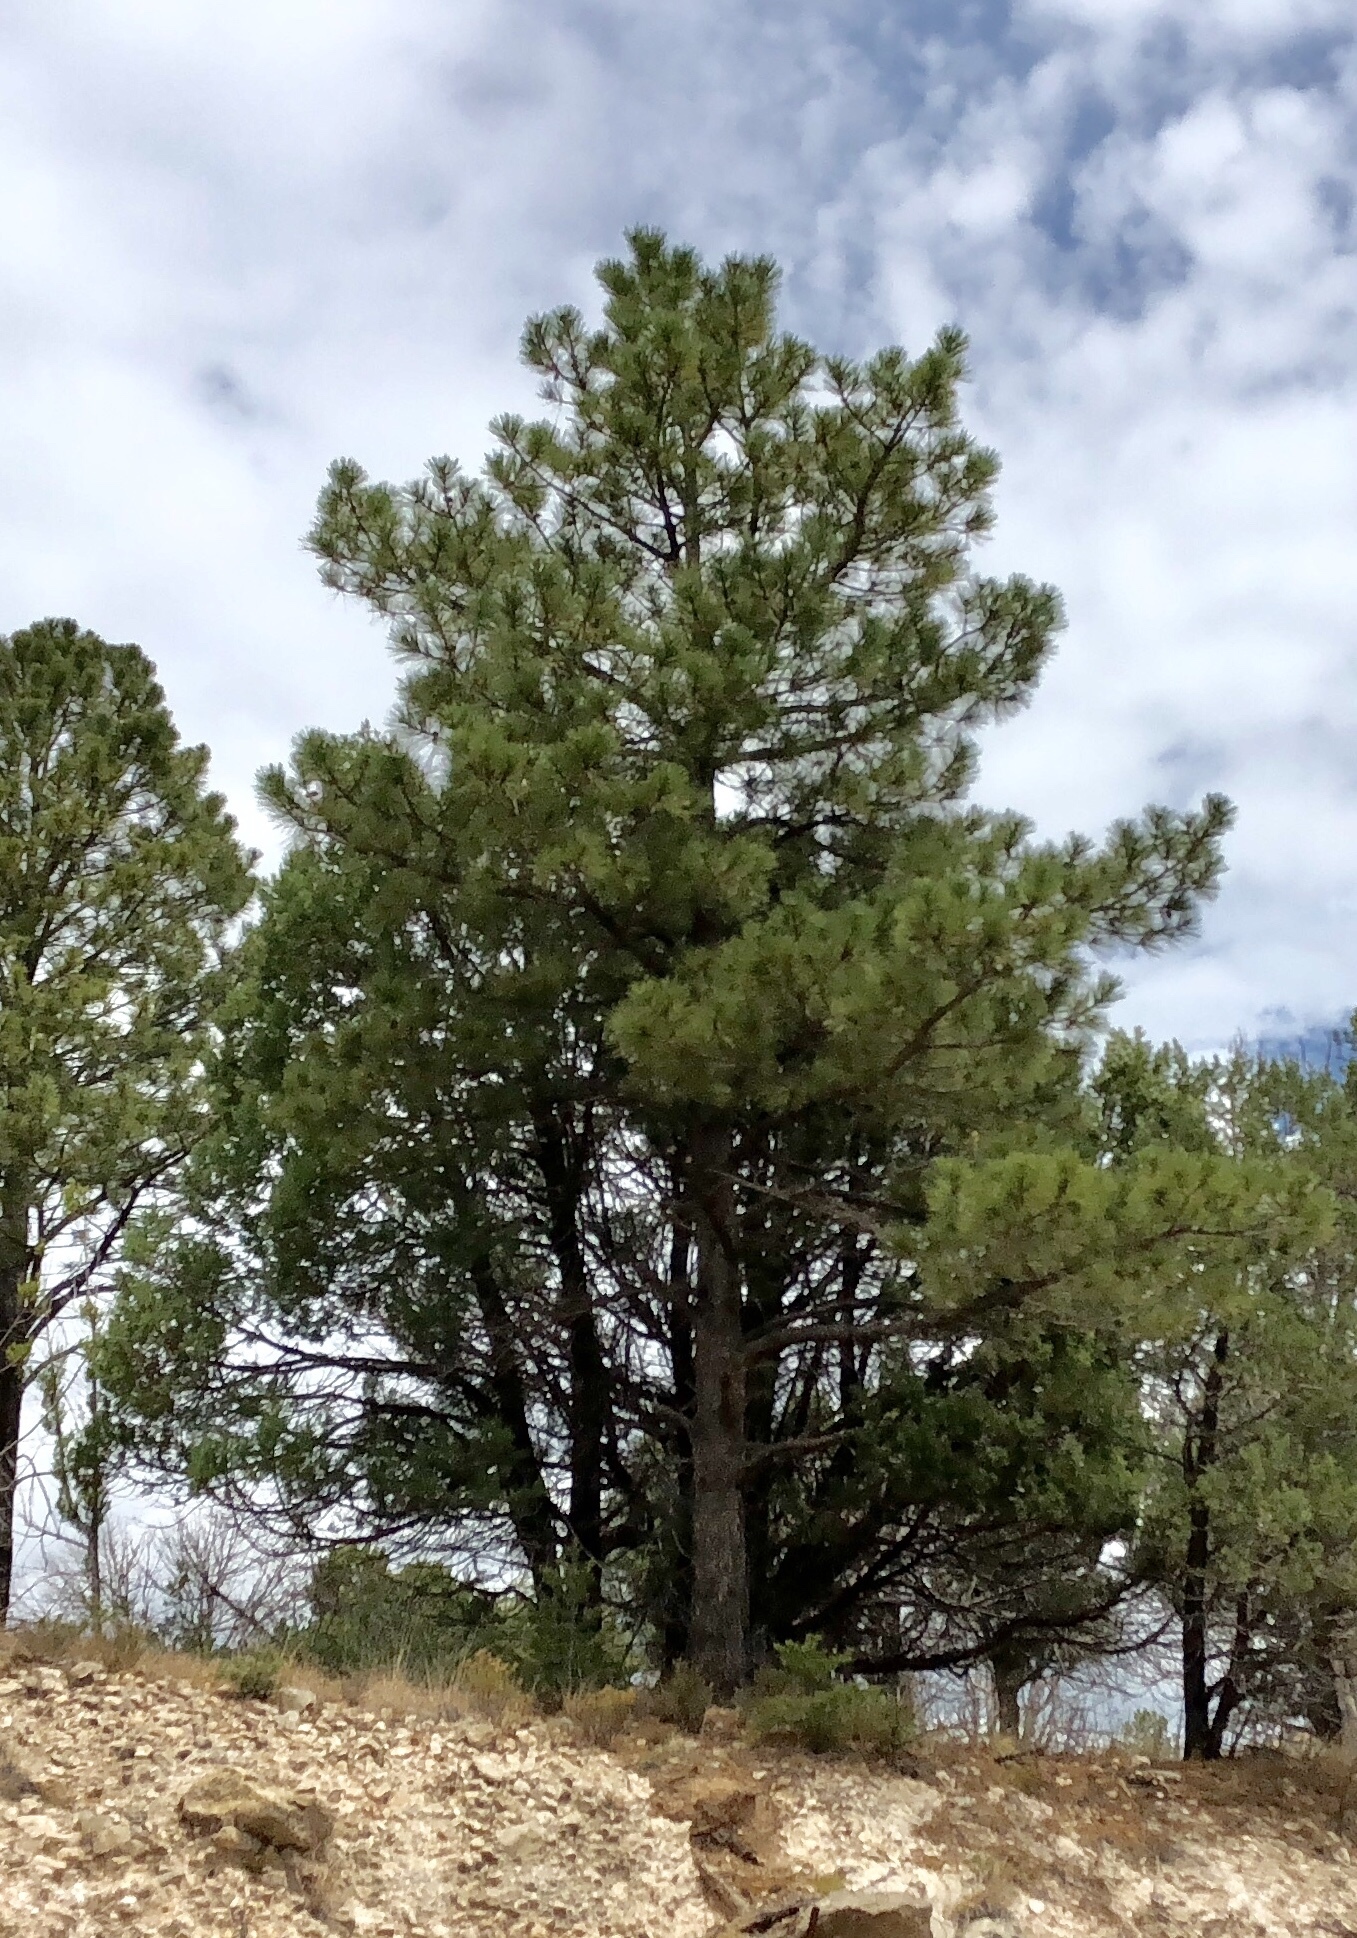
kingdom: Plantae
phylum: Tracheophyta
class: Pinopsida
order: Pinales
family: Pinaceae
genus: Pinus
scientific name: Pinus ponderosa
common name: Western yellow-pine
